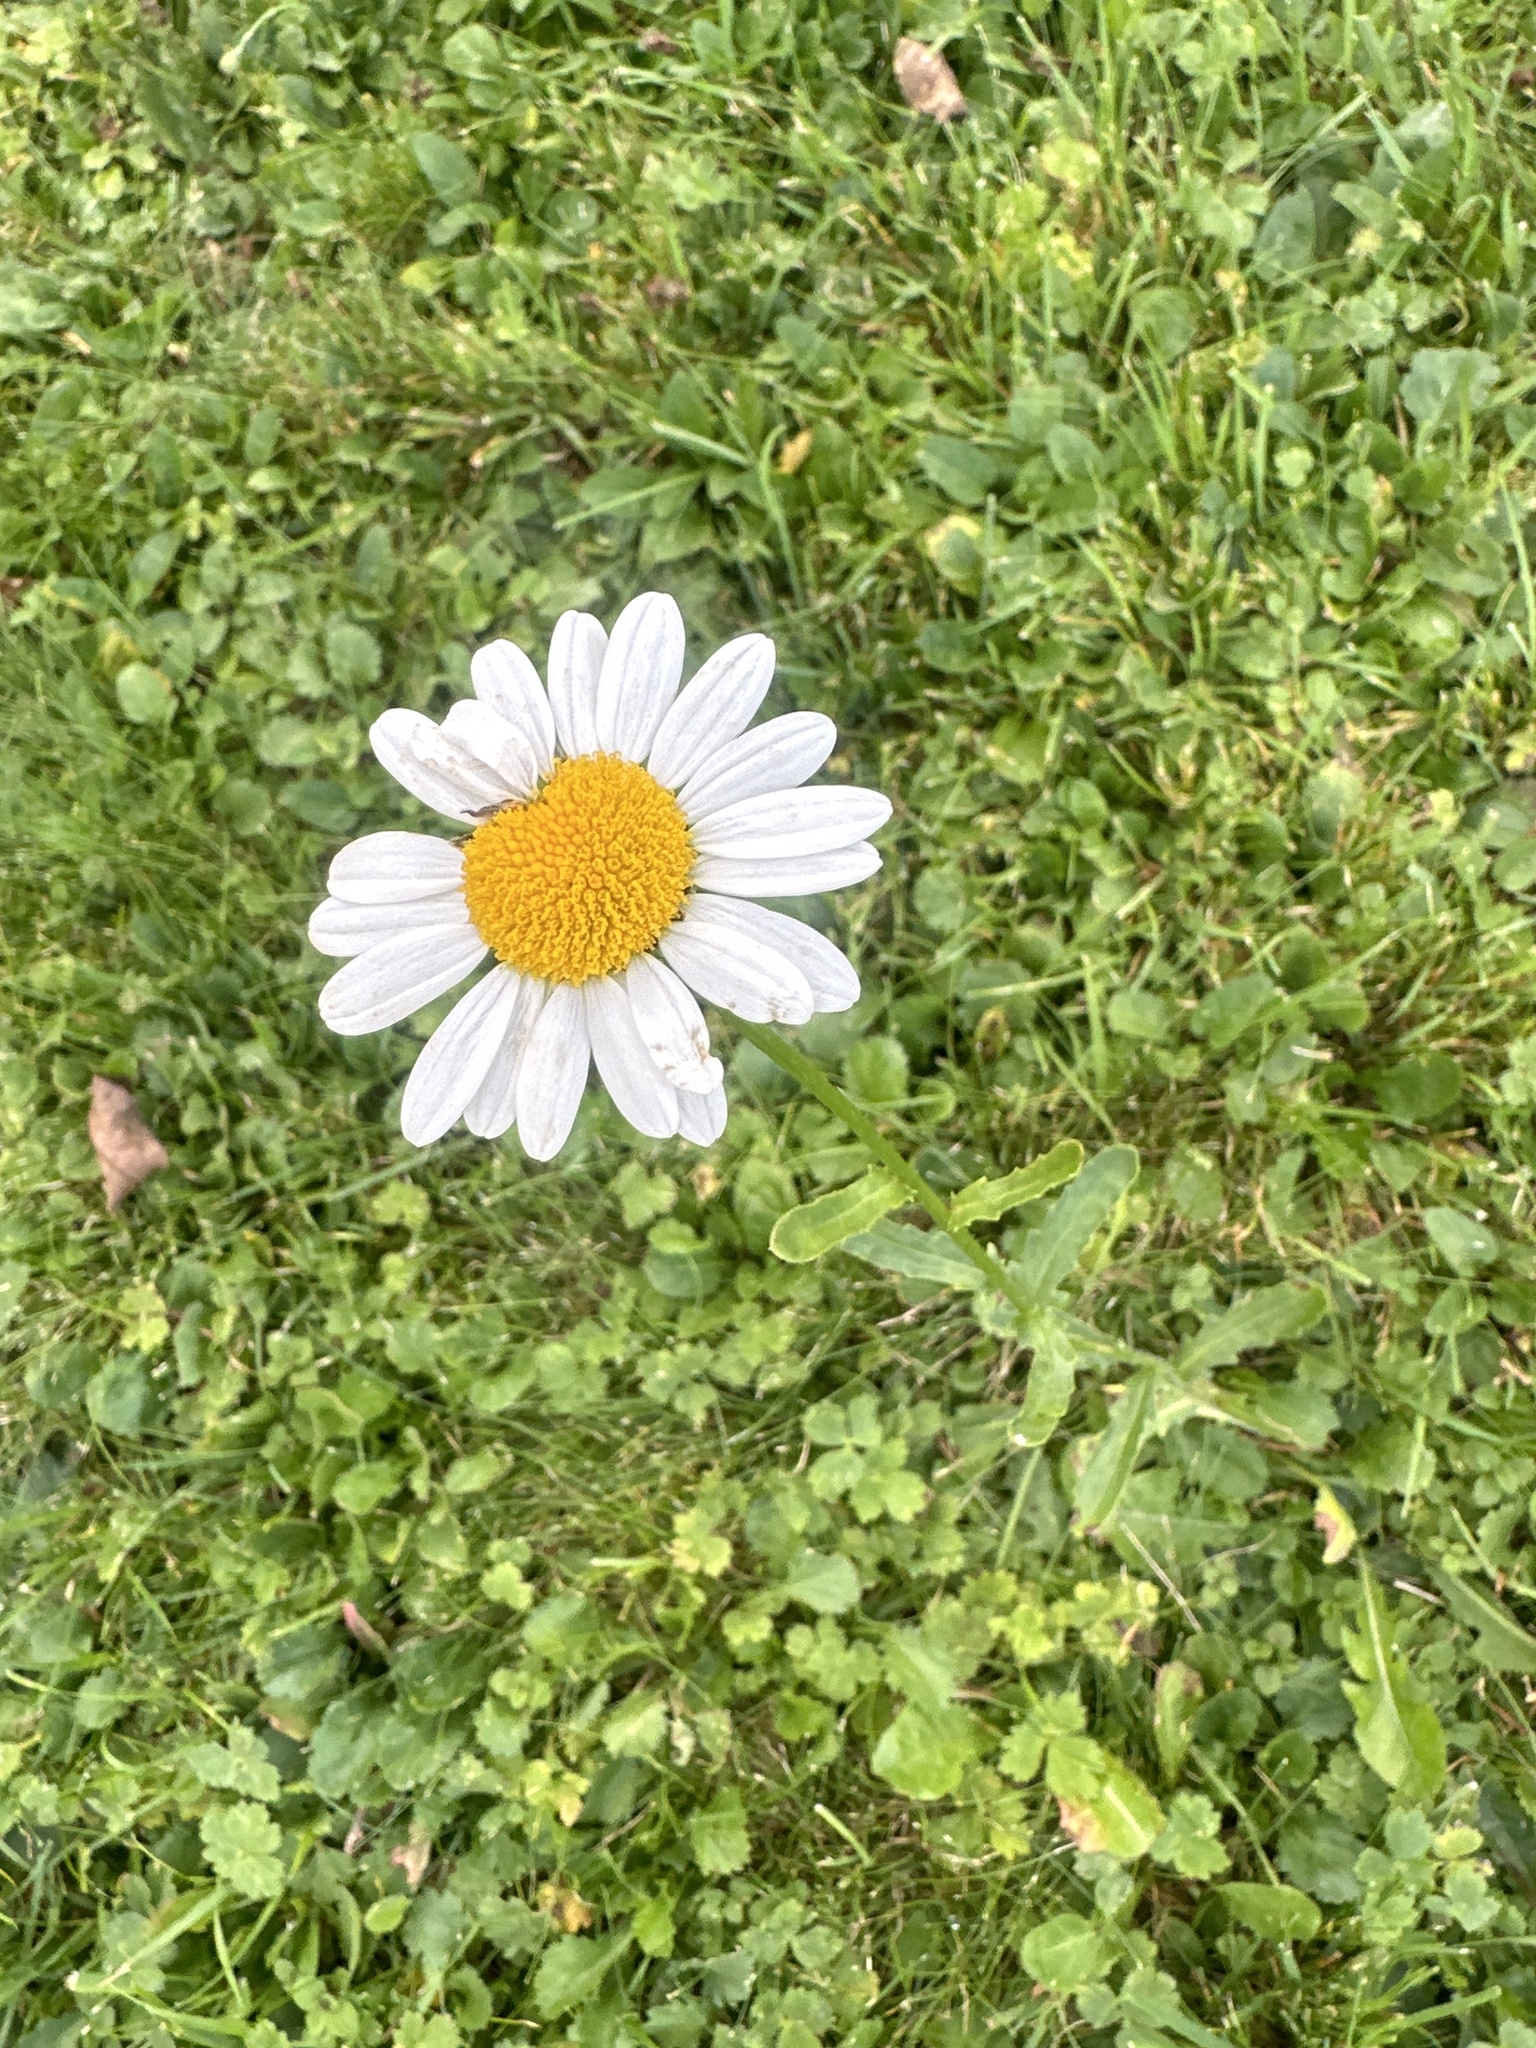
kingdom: Plantae
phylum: Tracheophyta
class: Magnoliopsida
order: Asterales
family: Asteraceae
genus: Leucanthemum
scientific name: Leucanthemum vulgare
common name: Oxeye daisy
